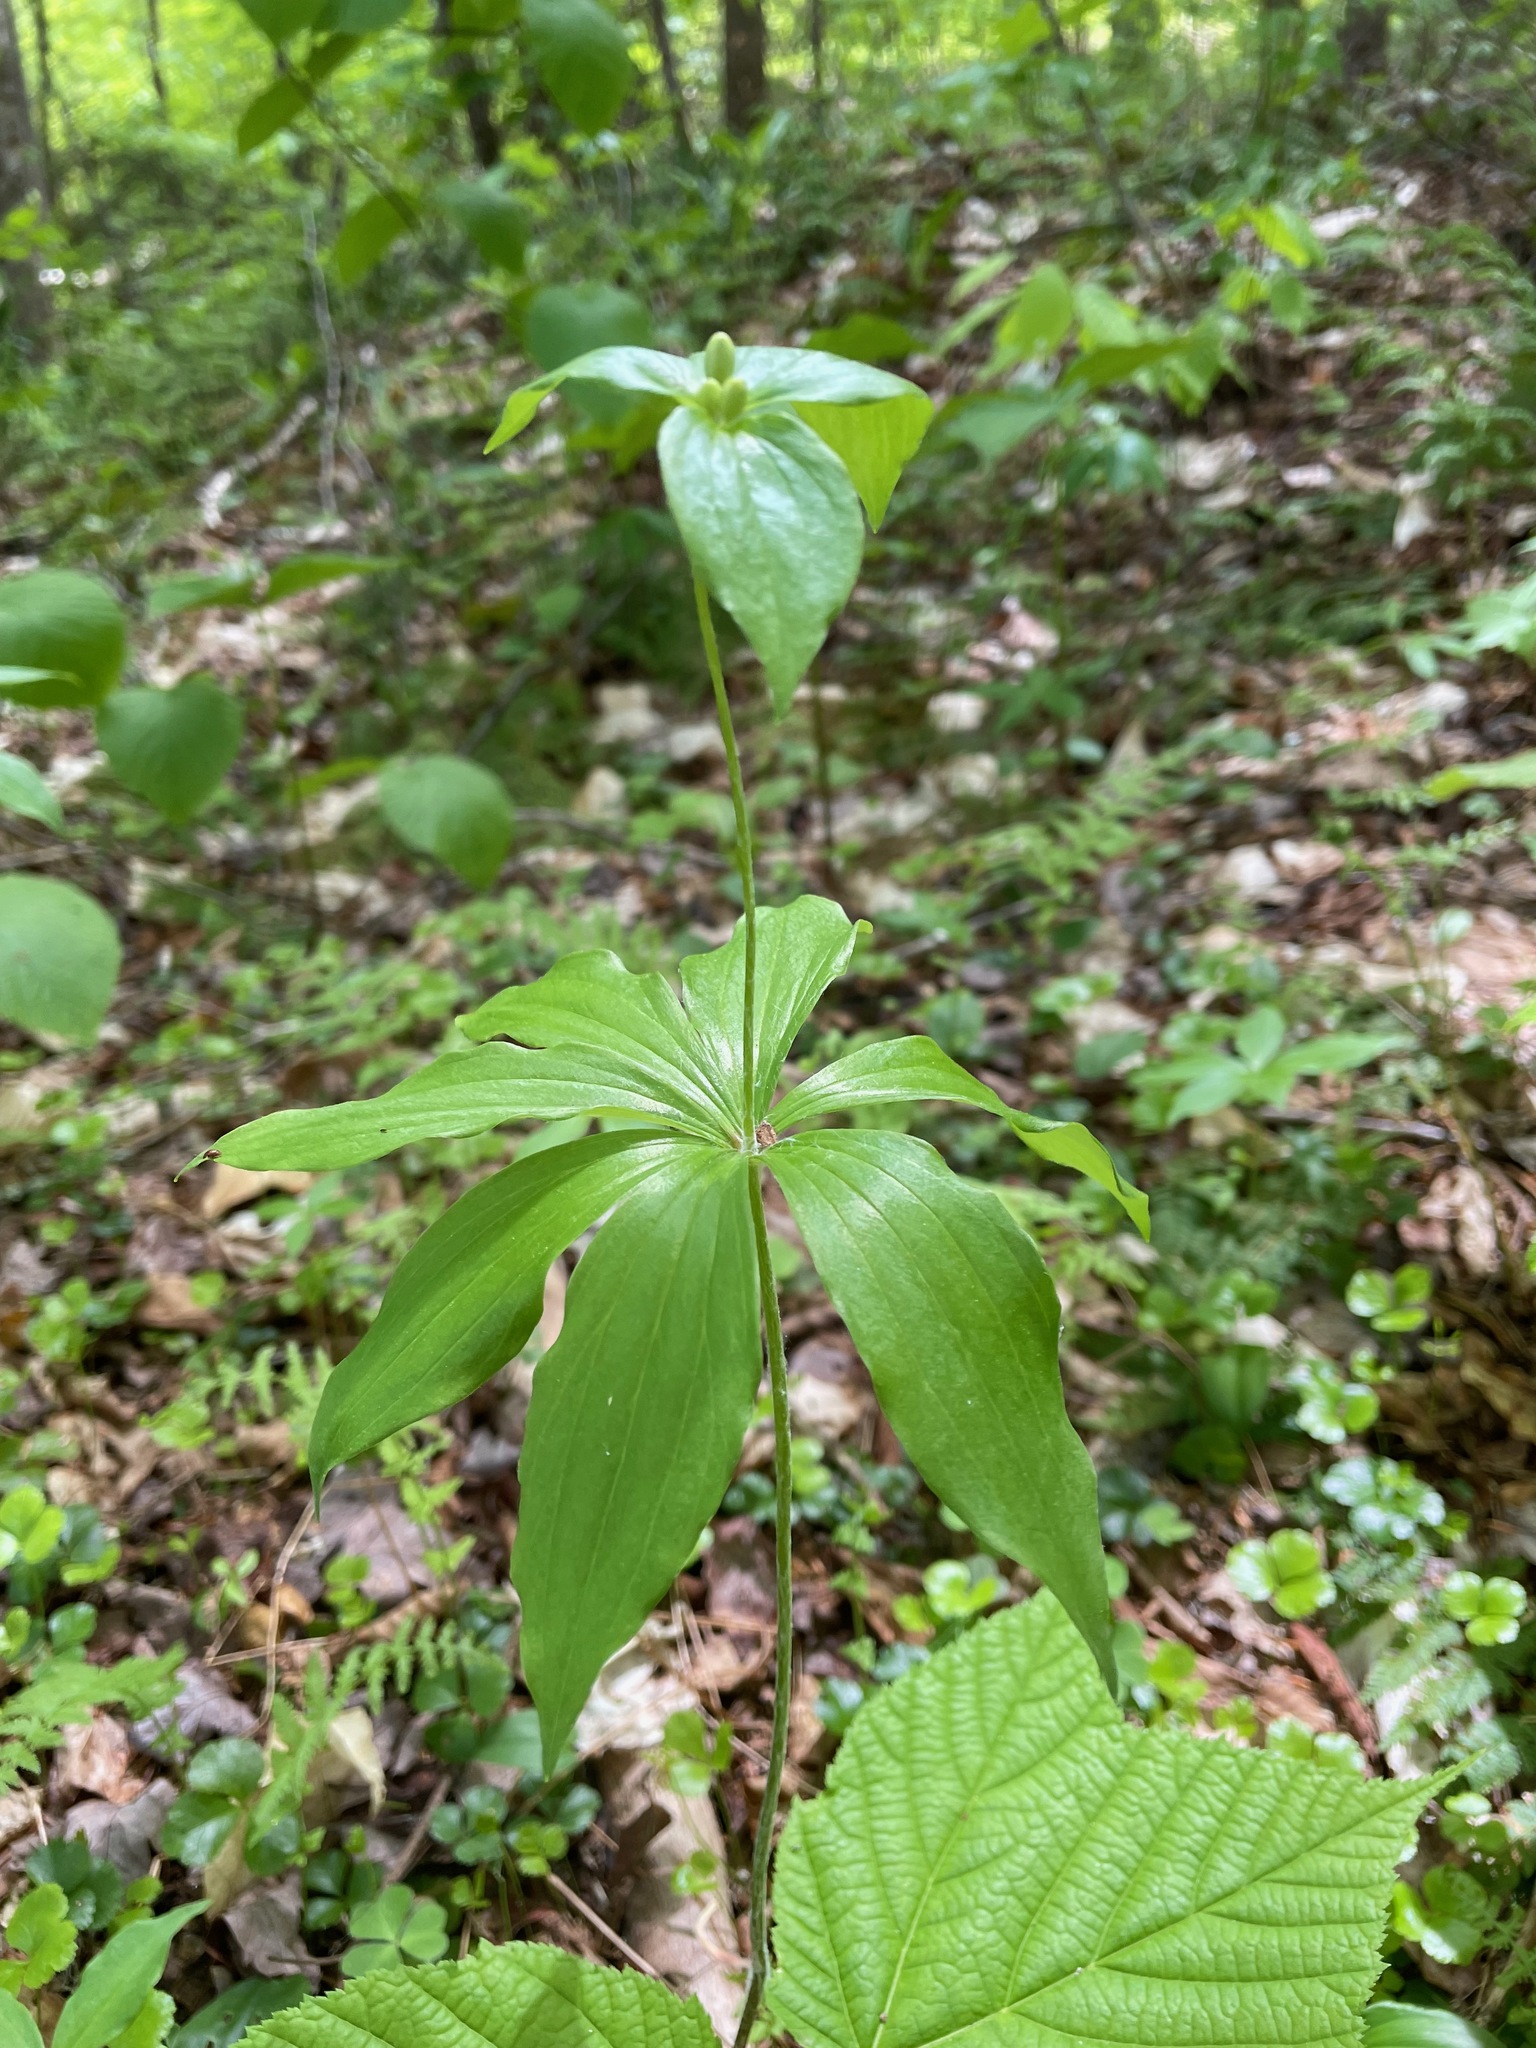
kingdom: Plantae
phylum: Tracheophyta
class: Liliopsida
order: Liliales
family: Liliaceae
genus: Medeola
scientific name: Medeola virginiana
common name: Indian cucumber-root
